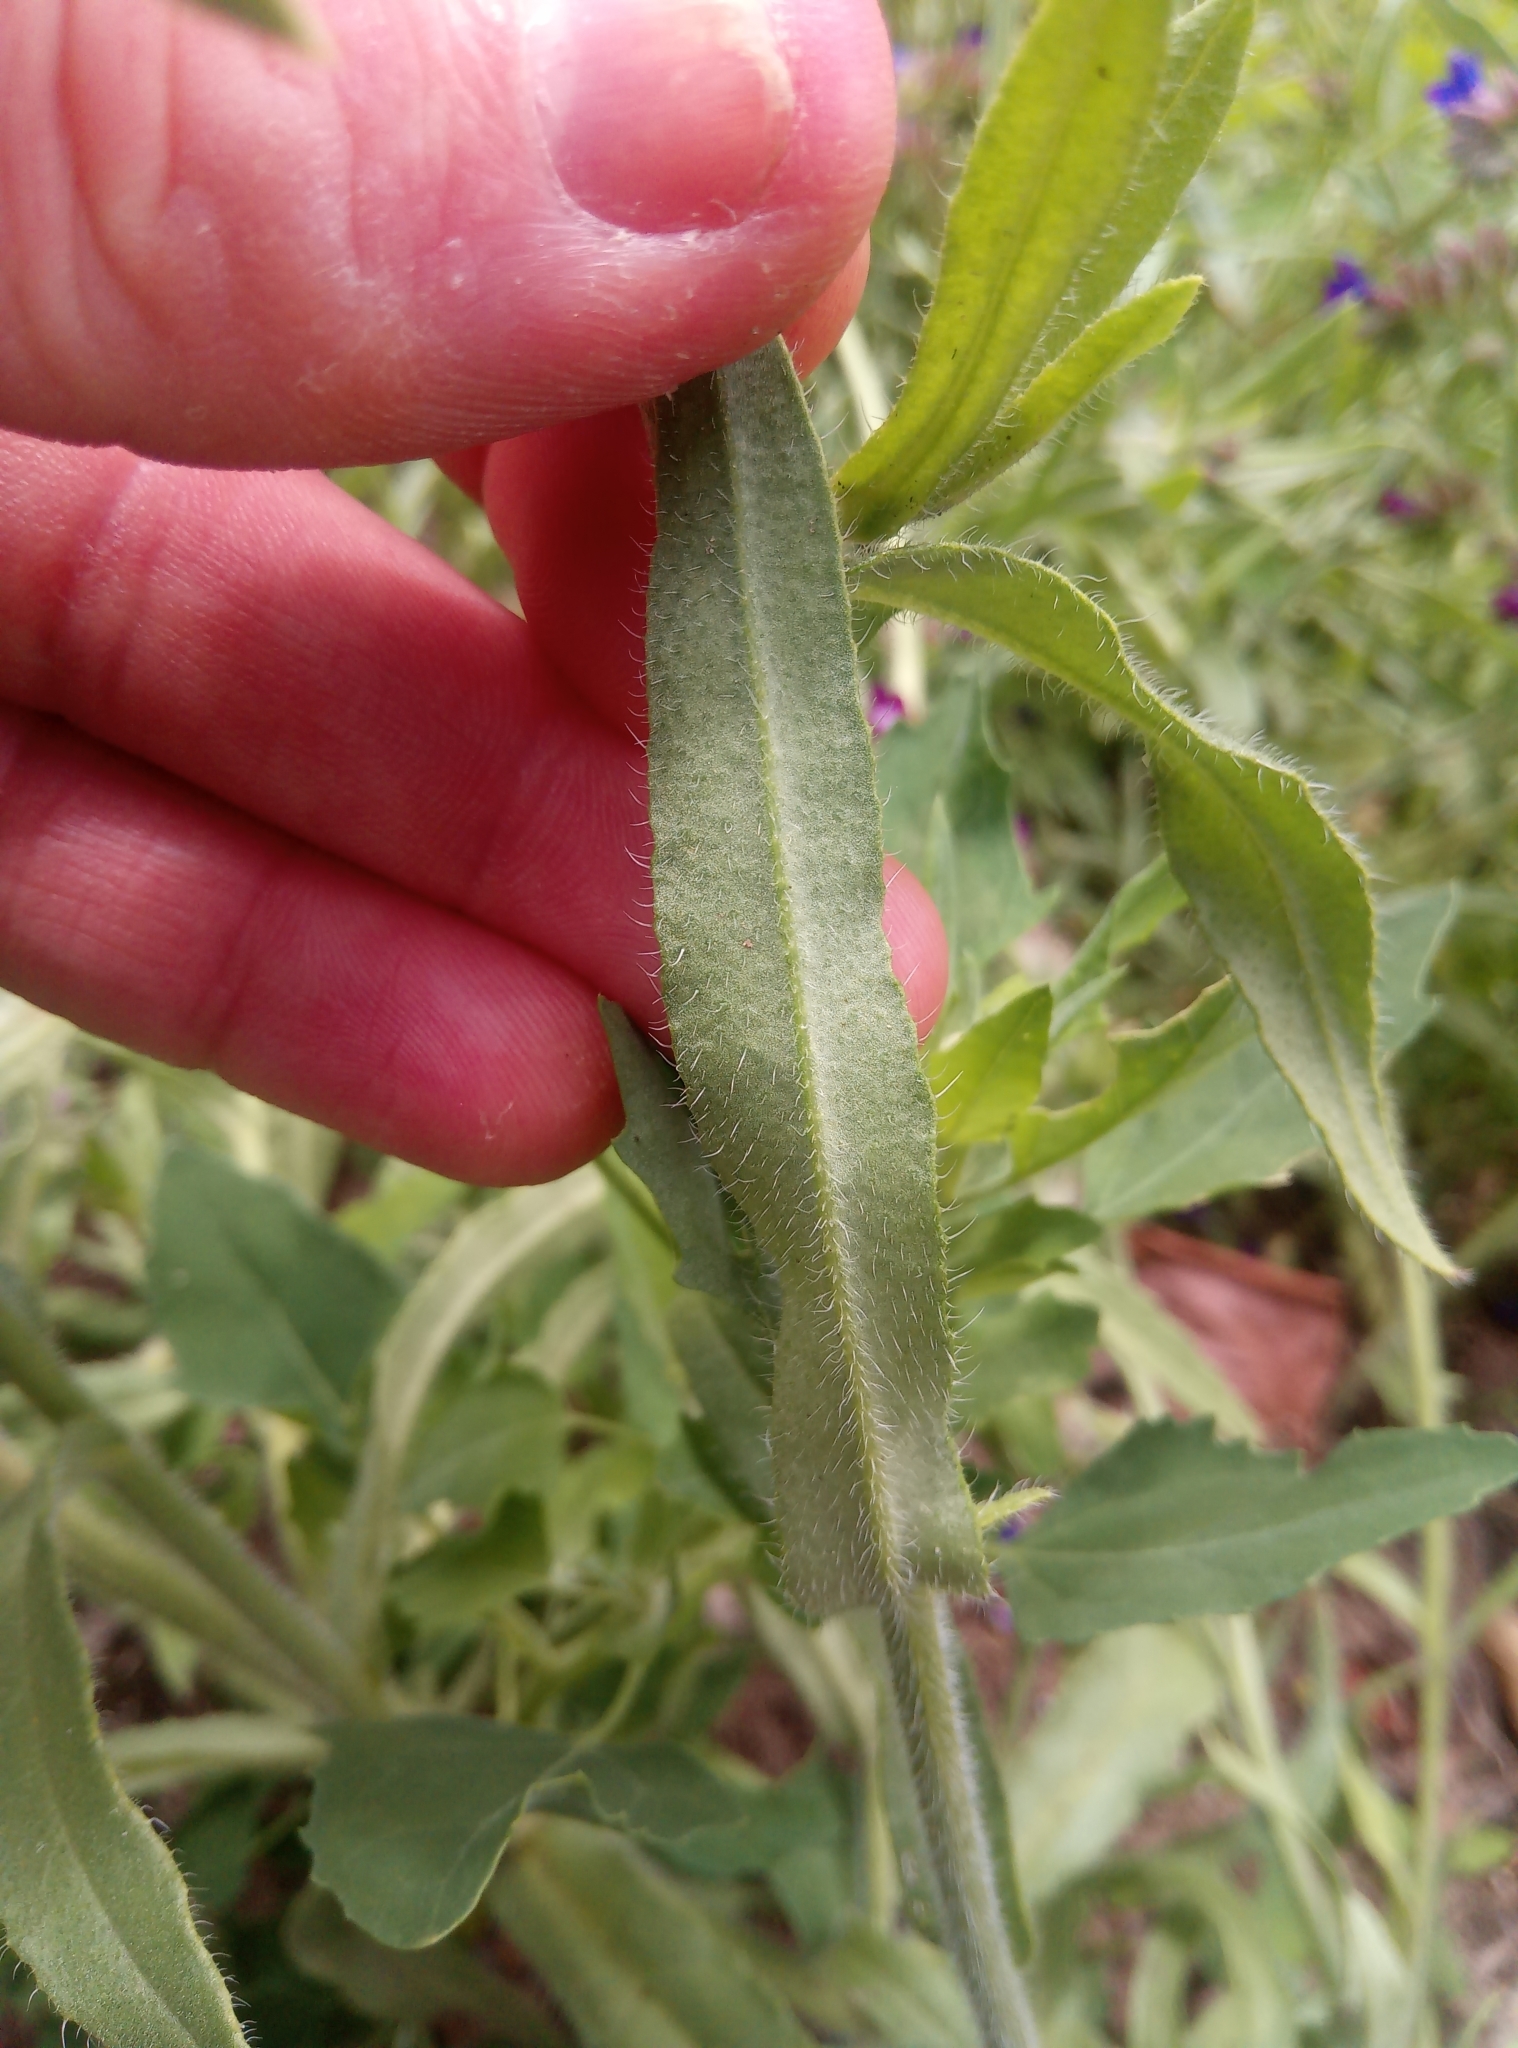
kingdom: Plantae
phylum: Tracheophyta
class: Magnoliopsida
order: Boraginales
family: Boraginaceae
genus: Anchusa
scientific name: Anchusa officinalis
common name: Alkanet
